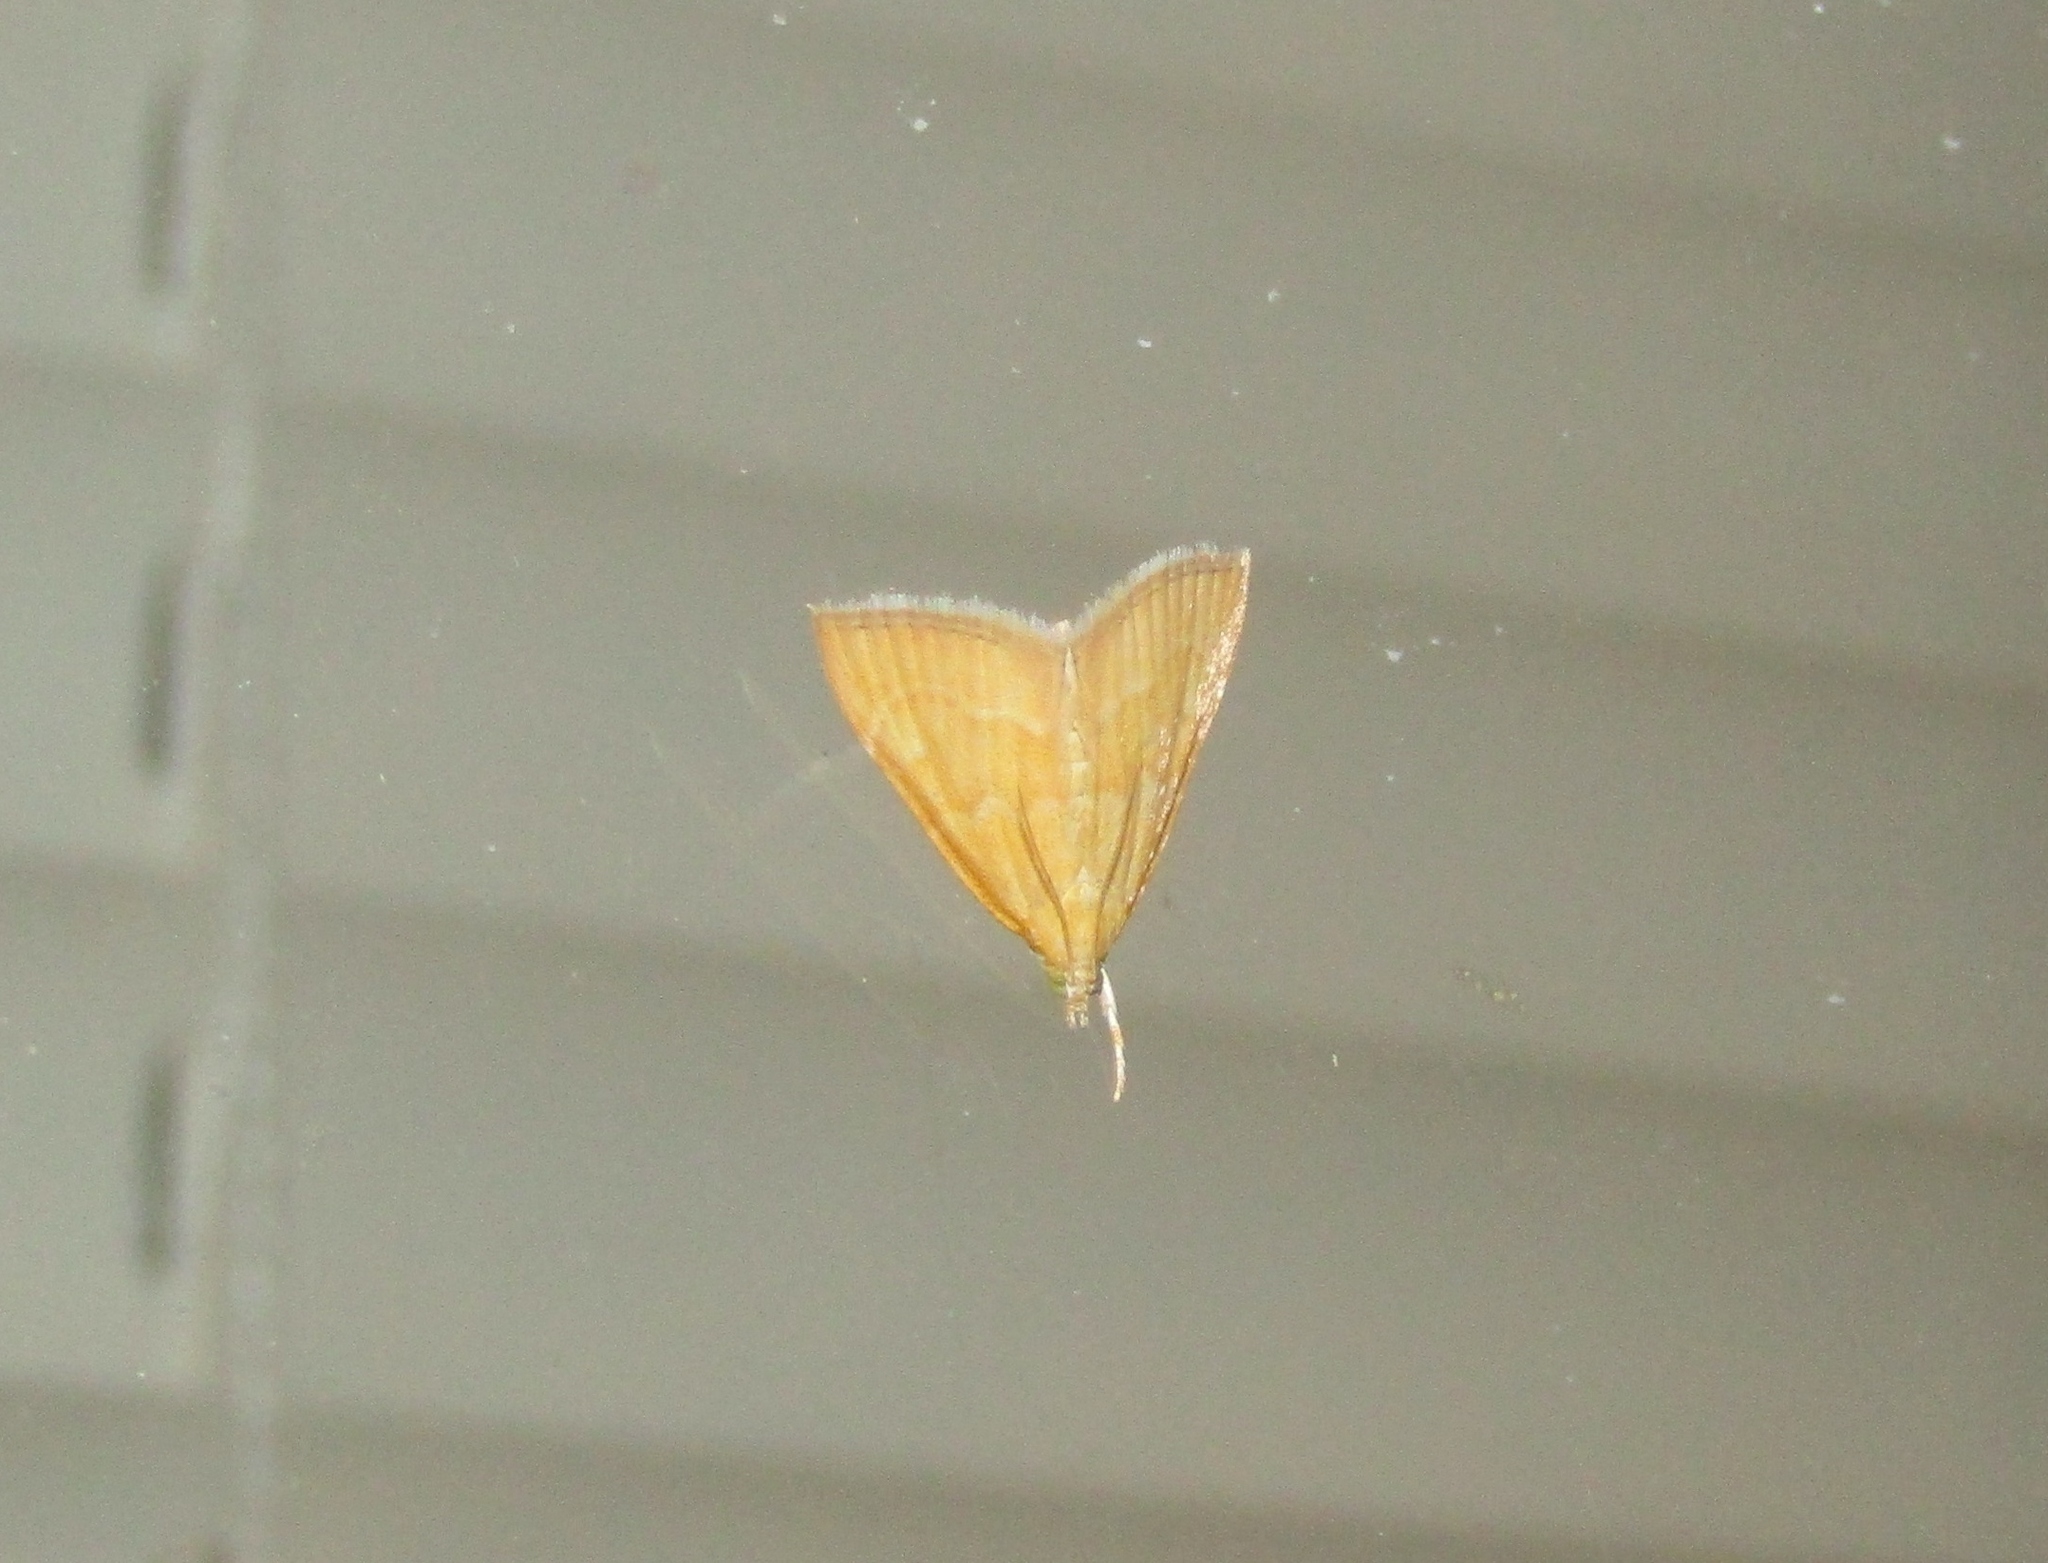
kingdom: Animalia
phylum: Arthropoda
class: Insecta
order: Lepidoptera
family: Crambidae
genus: Glaphyria
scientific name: Glaphyria invisalis
